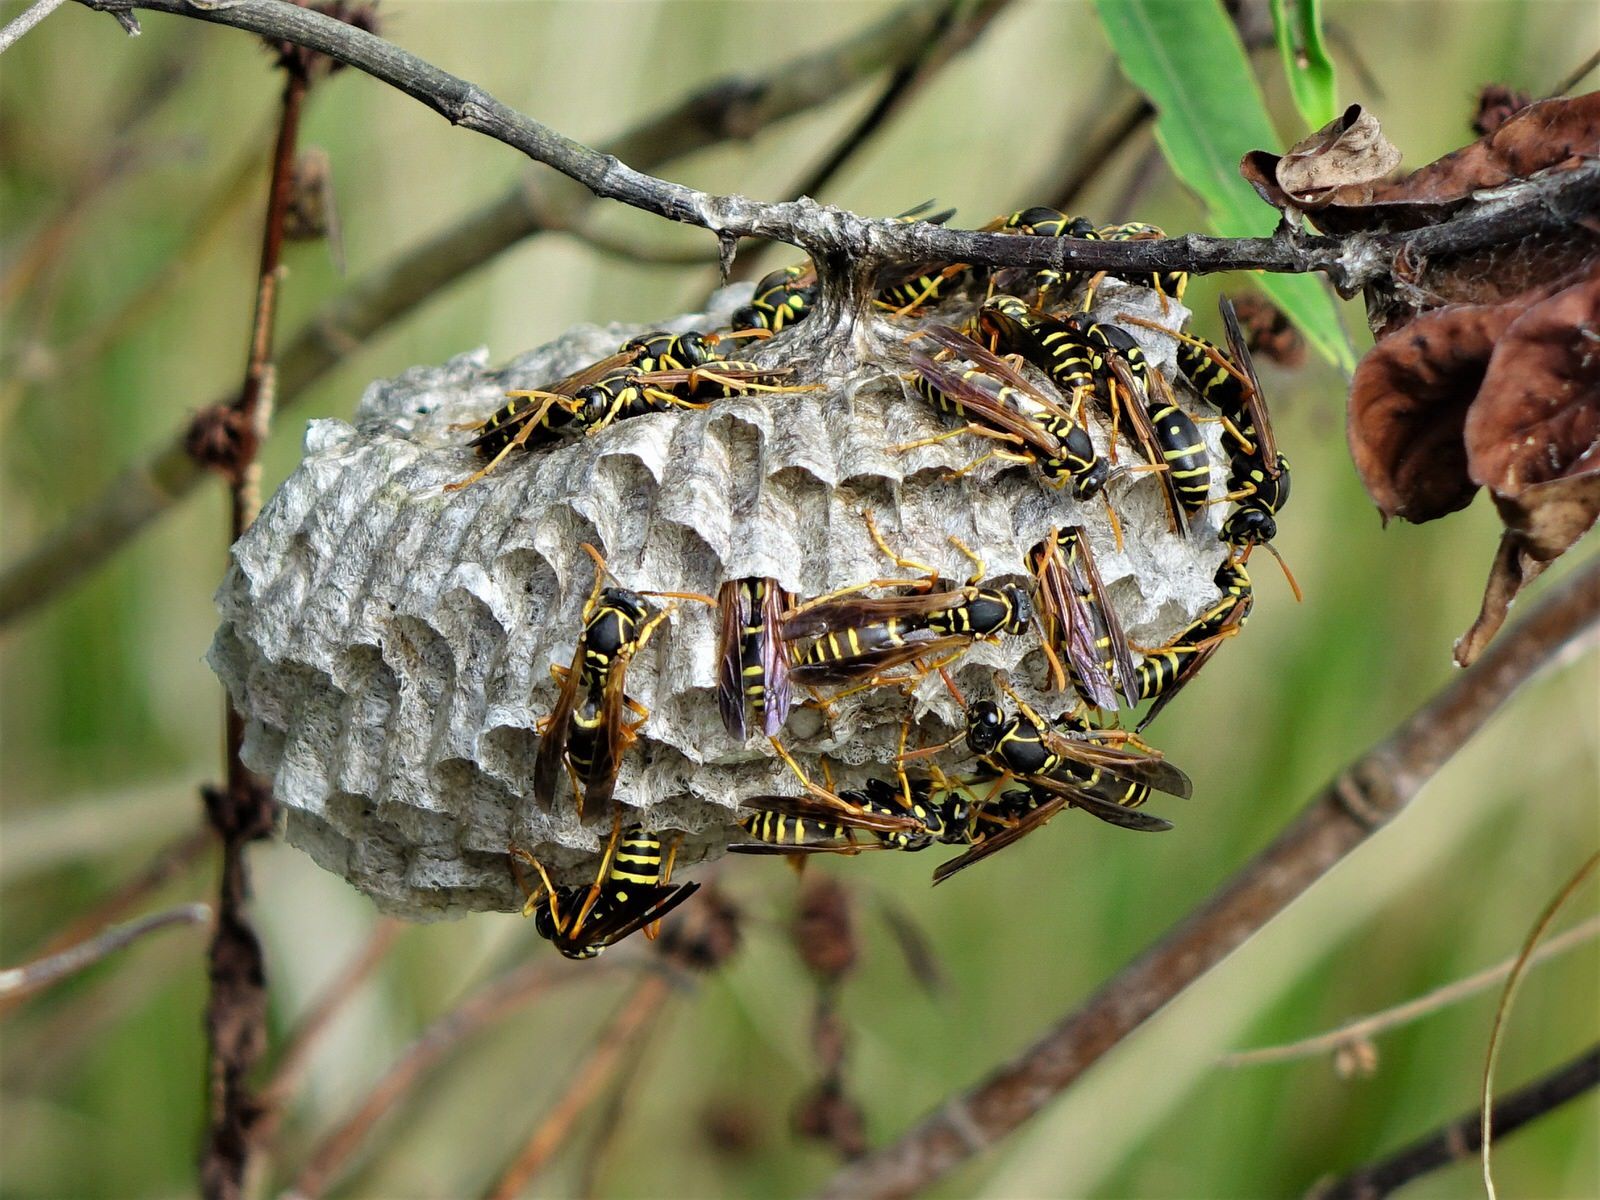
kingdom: Animalia
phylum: Arthropoda
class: Insecta
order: Hymenoptera
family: Eumenidae
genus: Polistes
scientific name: Polistes chinensis
